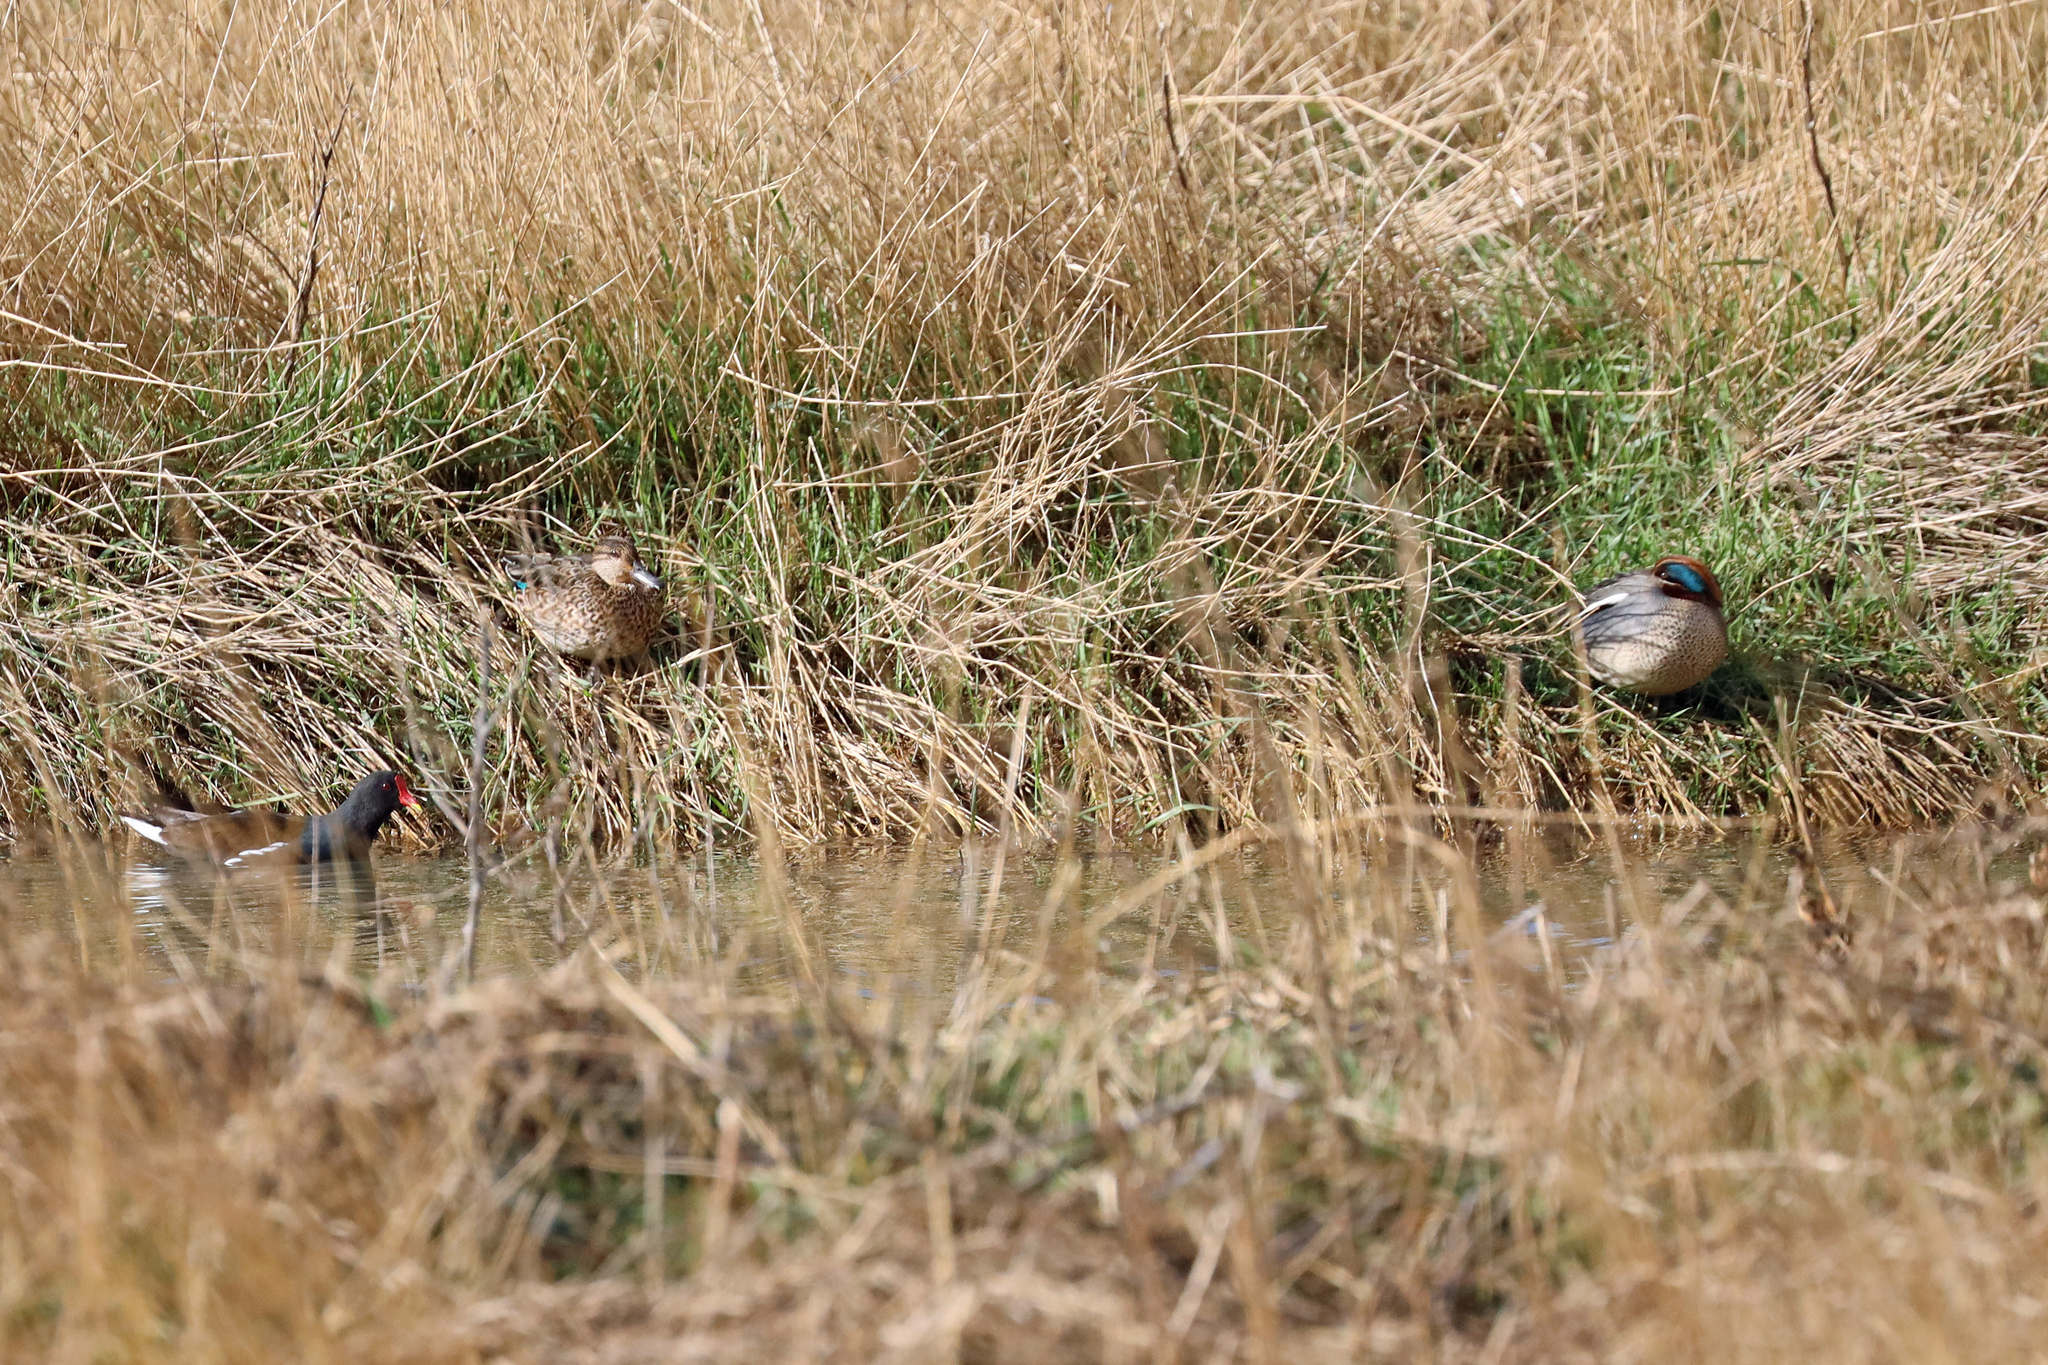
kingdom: Animalia
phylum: Chordata
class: Aves
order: Anseriformes
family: Anatidae
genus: Anas
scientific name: Anas crecca
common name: Eurasian teal
